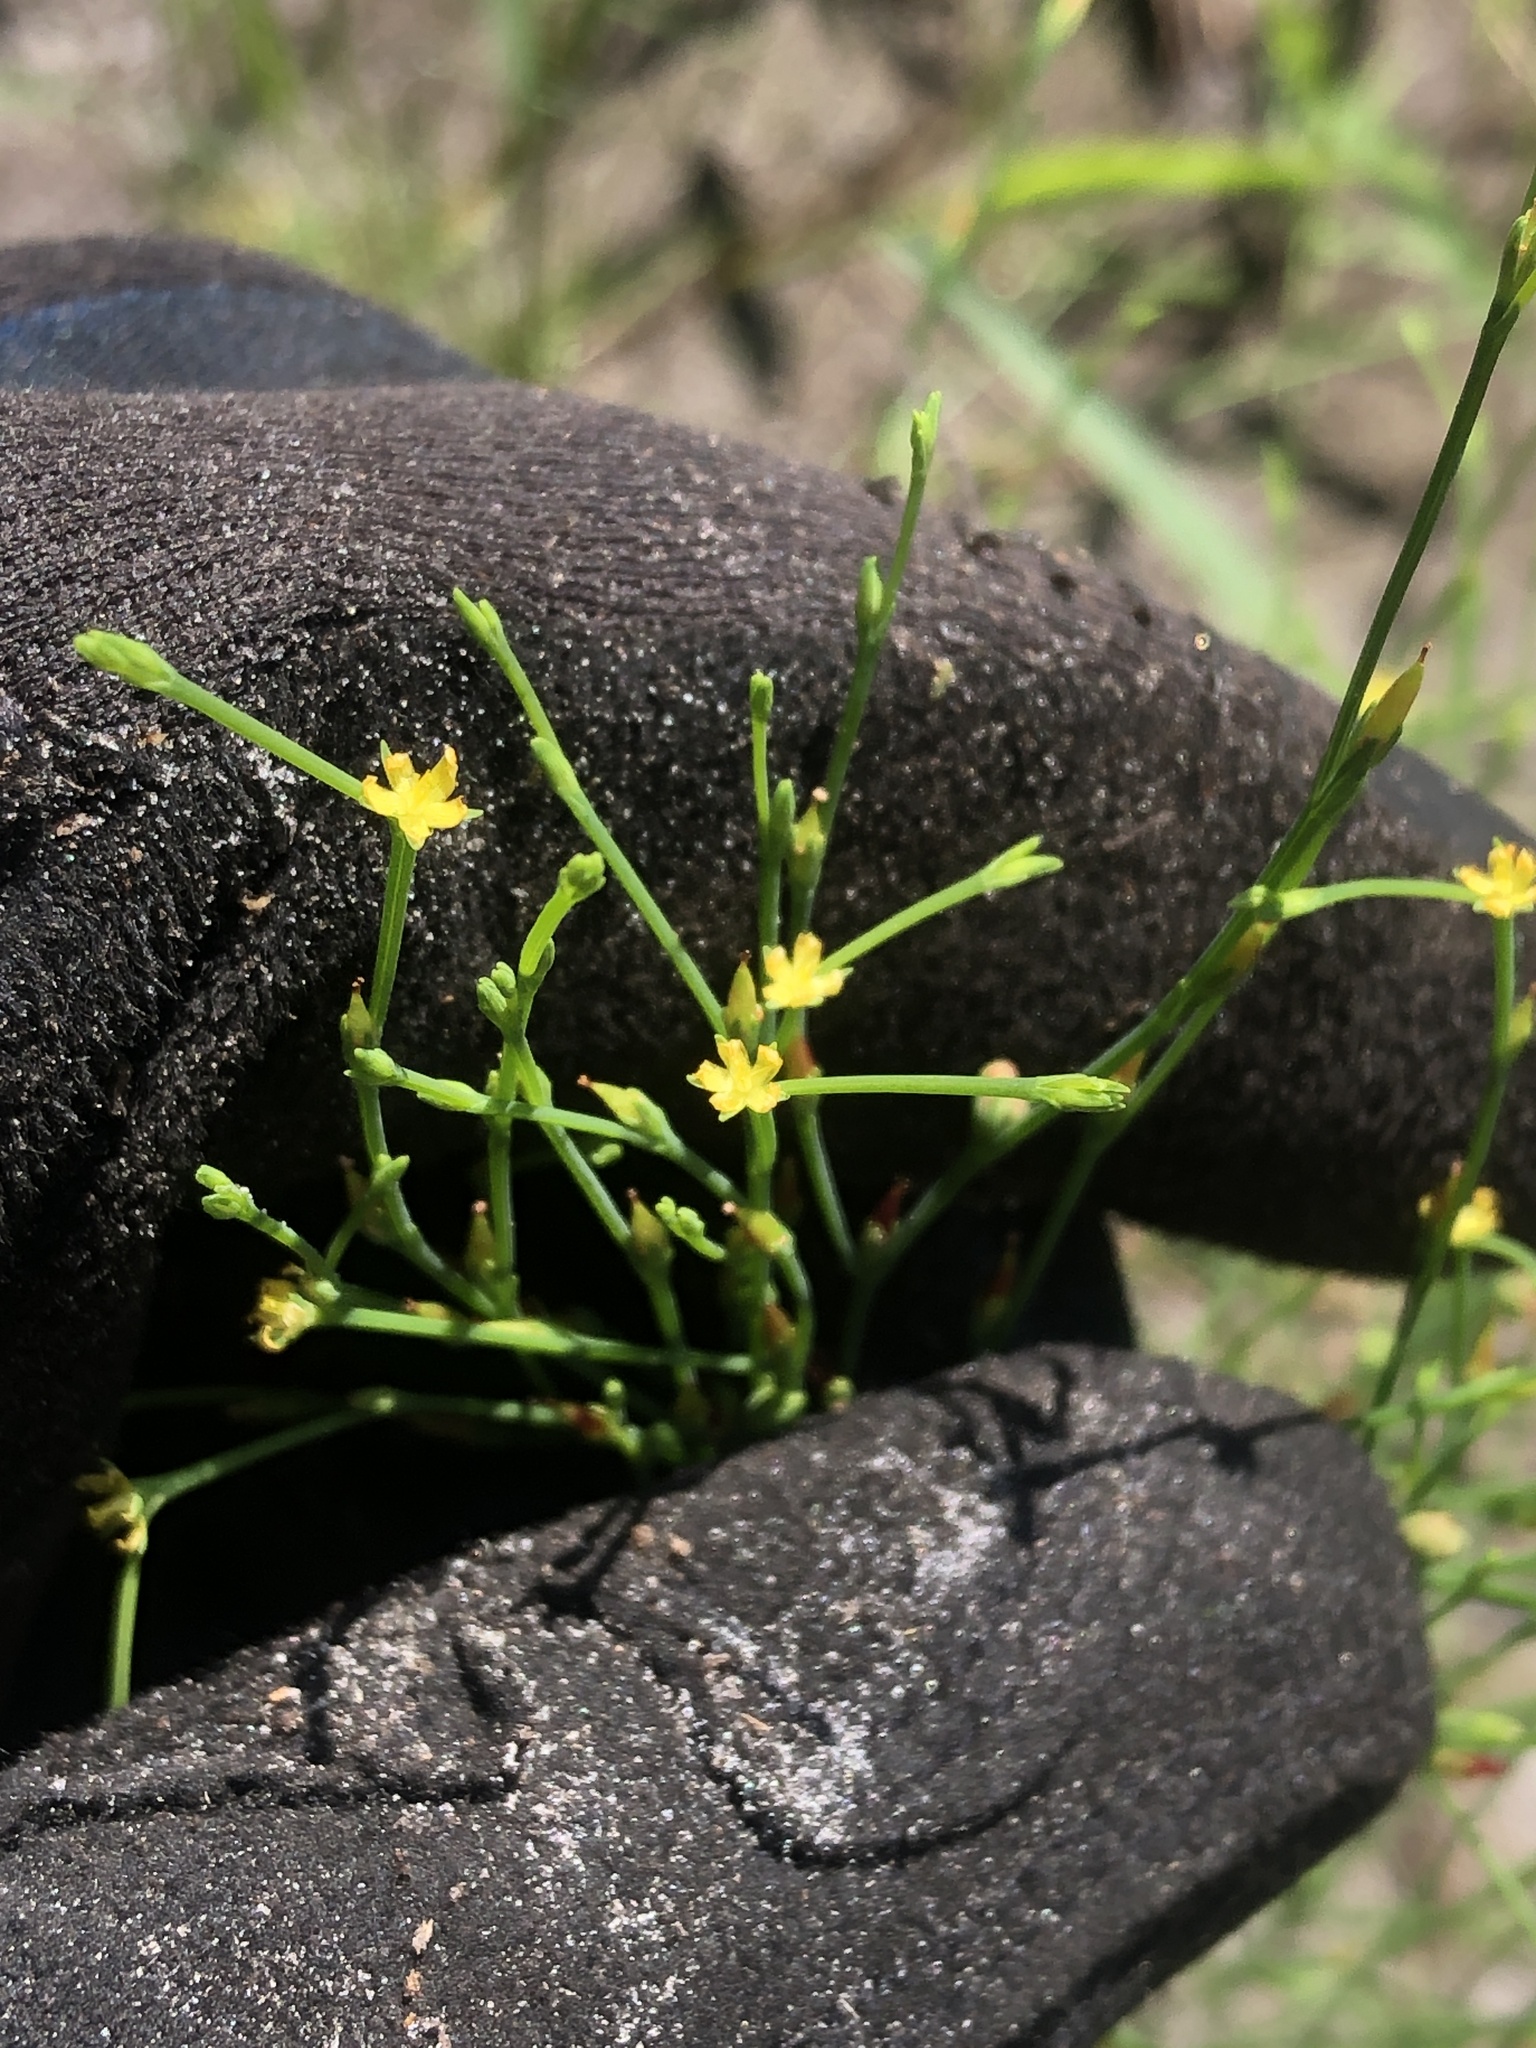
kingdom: Plantae
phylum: Tracheophyta
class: Magnoliopsida
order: Malpighiales
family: Hypericaceae
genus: Hypericum
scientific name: Hypericum gentianoides
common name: Gentian-leaved st. john's-wort
